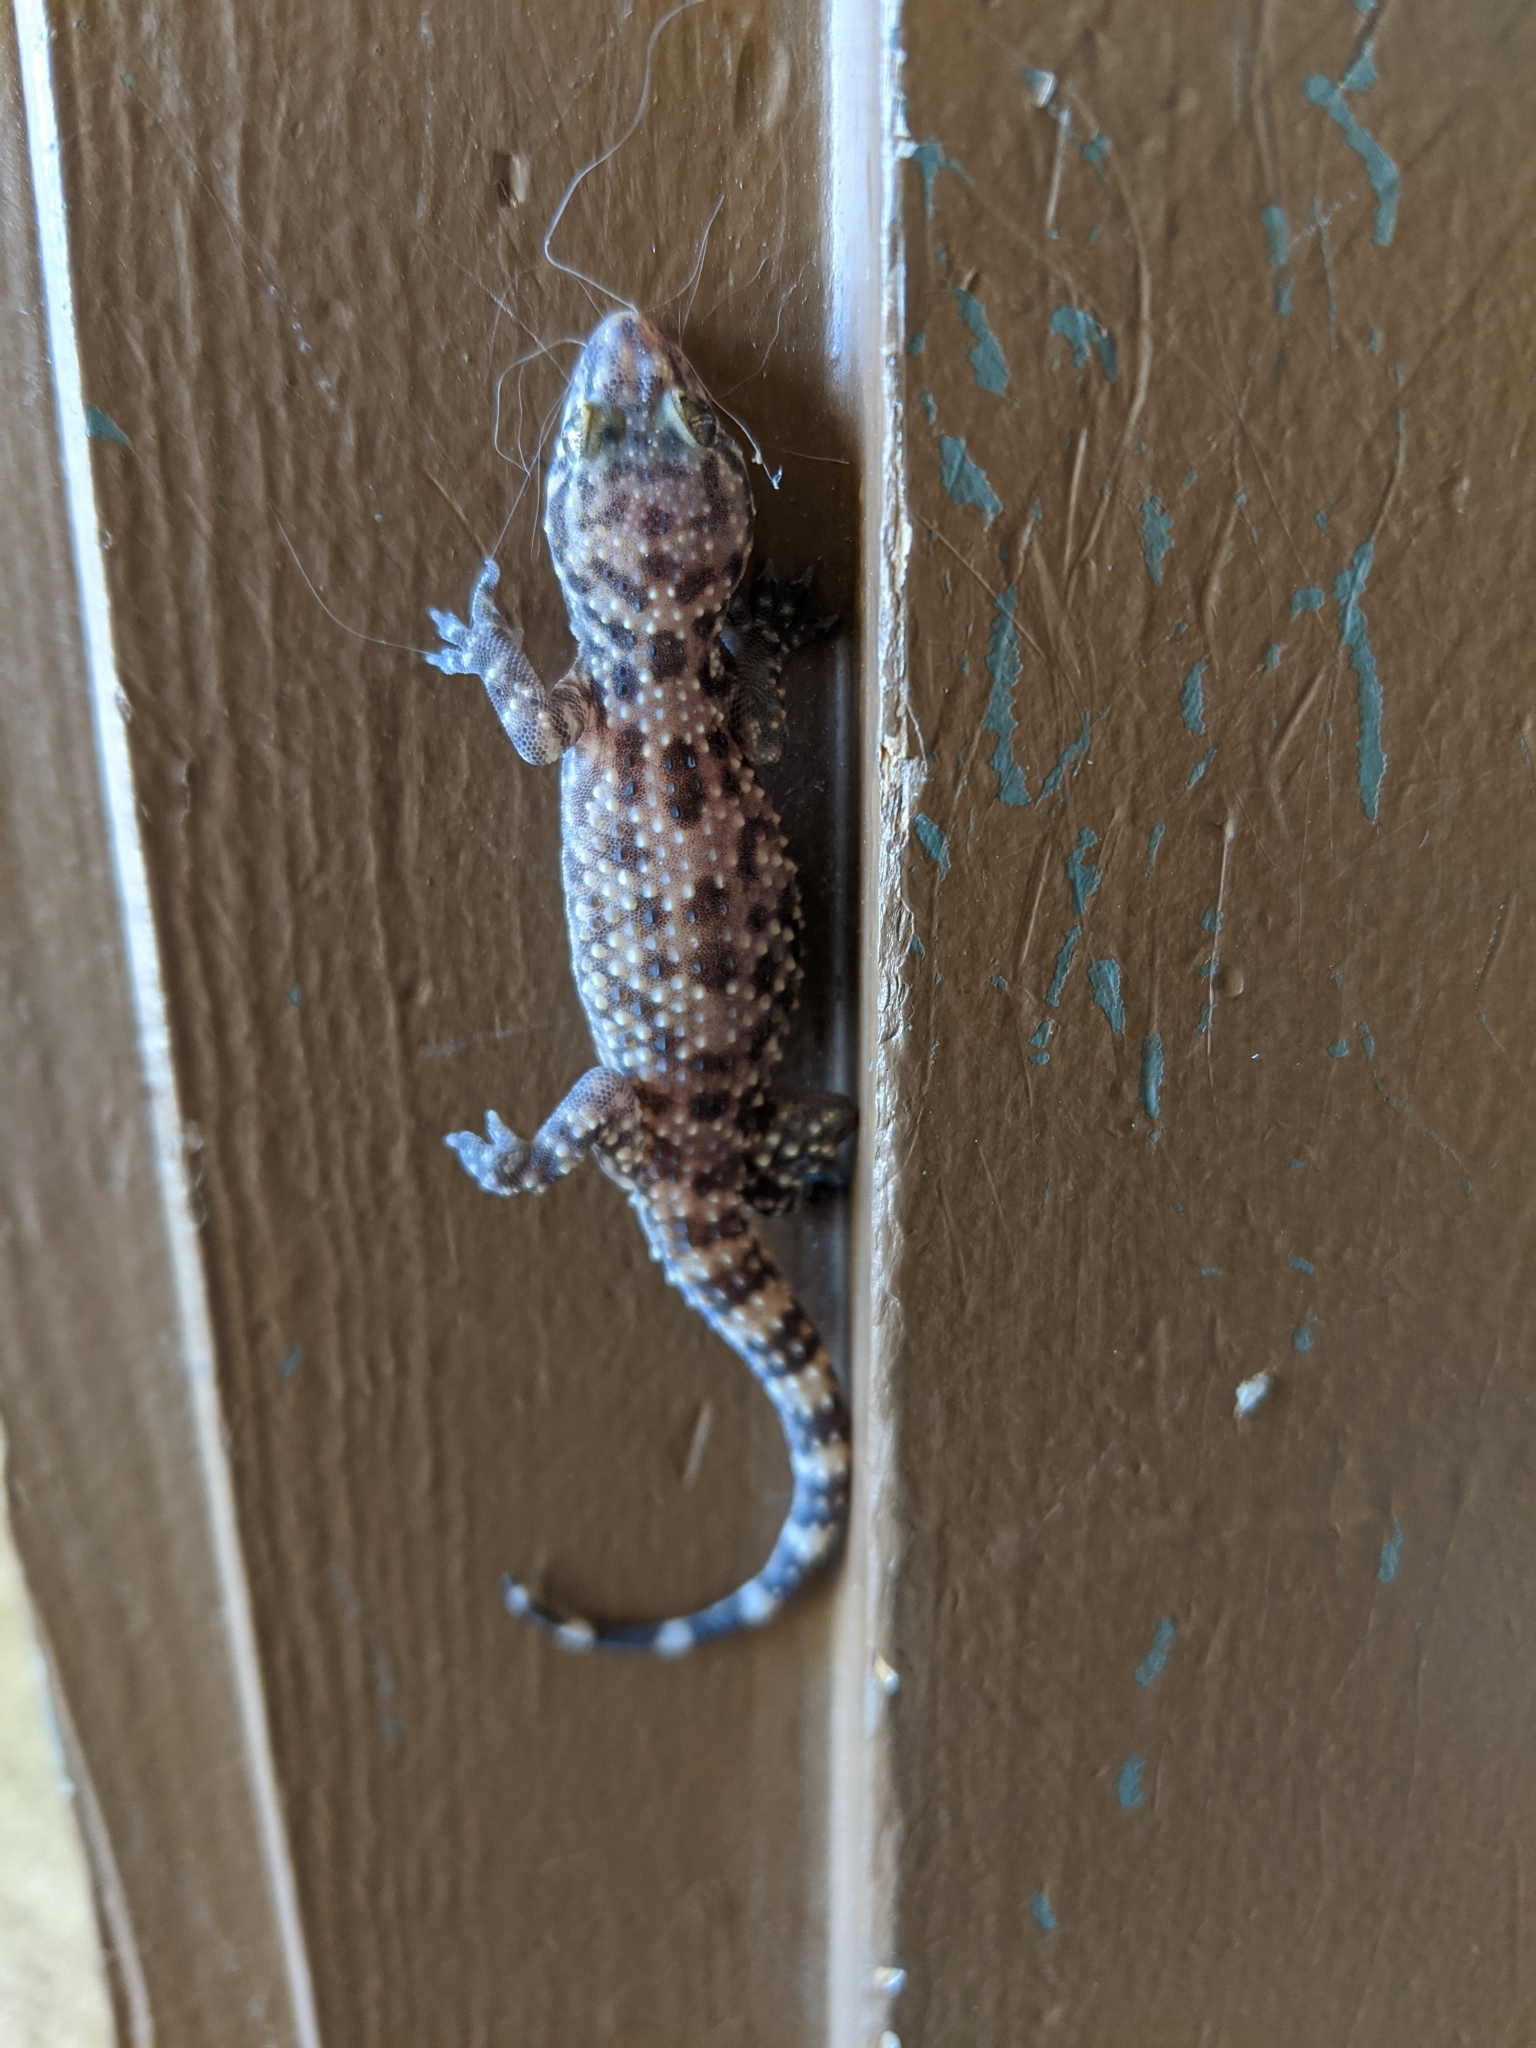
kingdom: Animalia
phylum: Chordata
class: Squamata
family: Gekkonidae
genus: Hemidactylus
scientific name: Hemidactylus turcicus
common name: Turkish gecko
